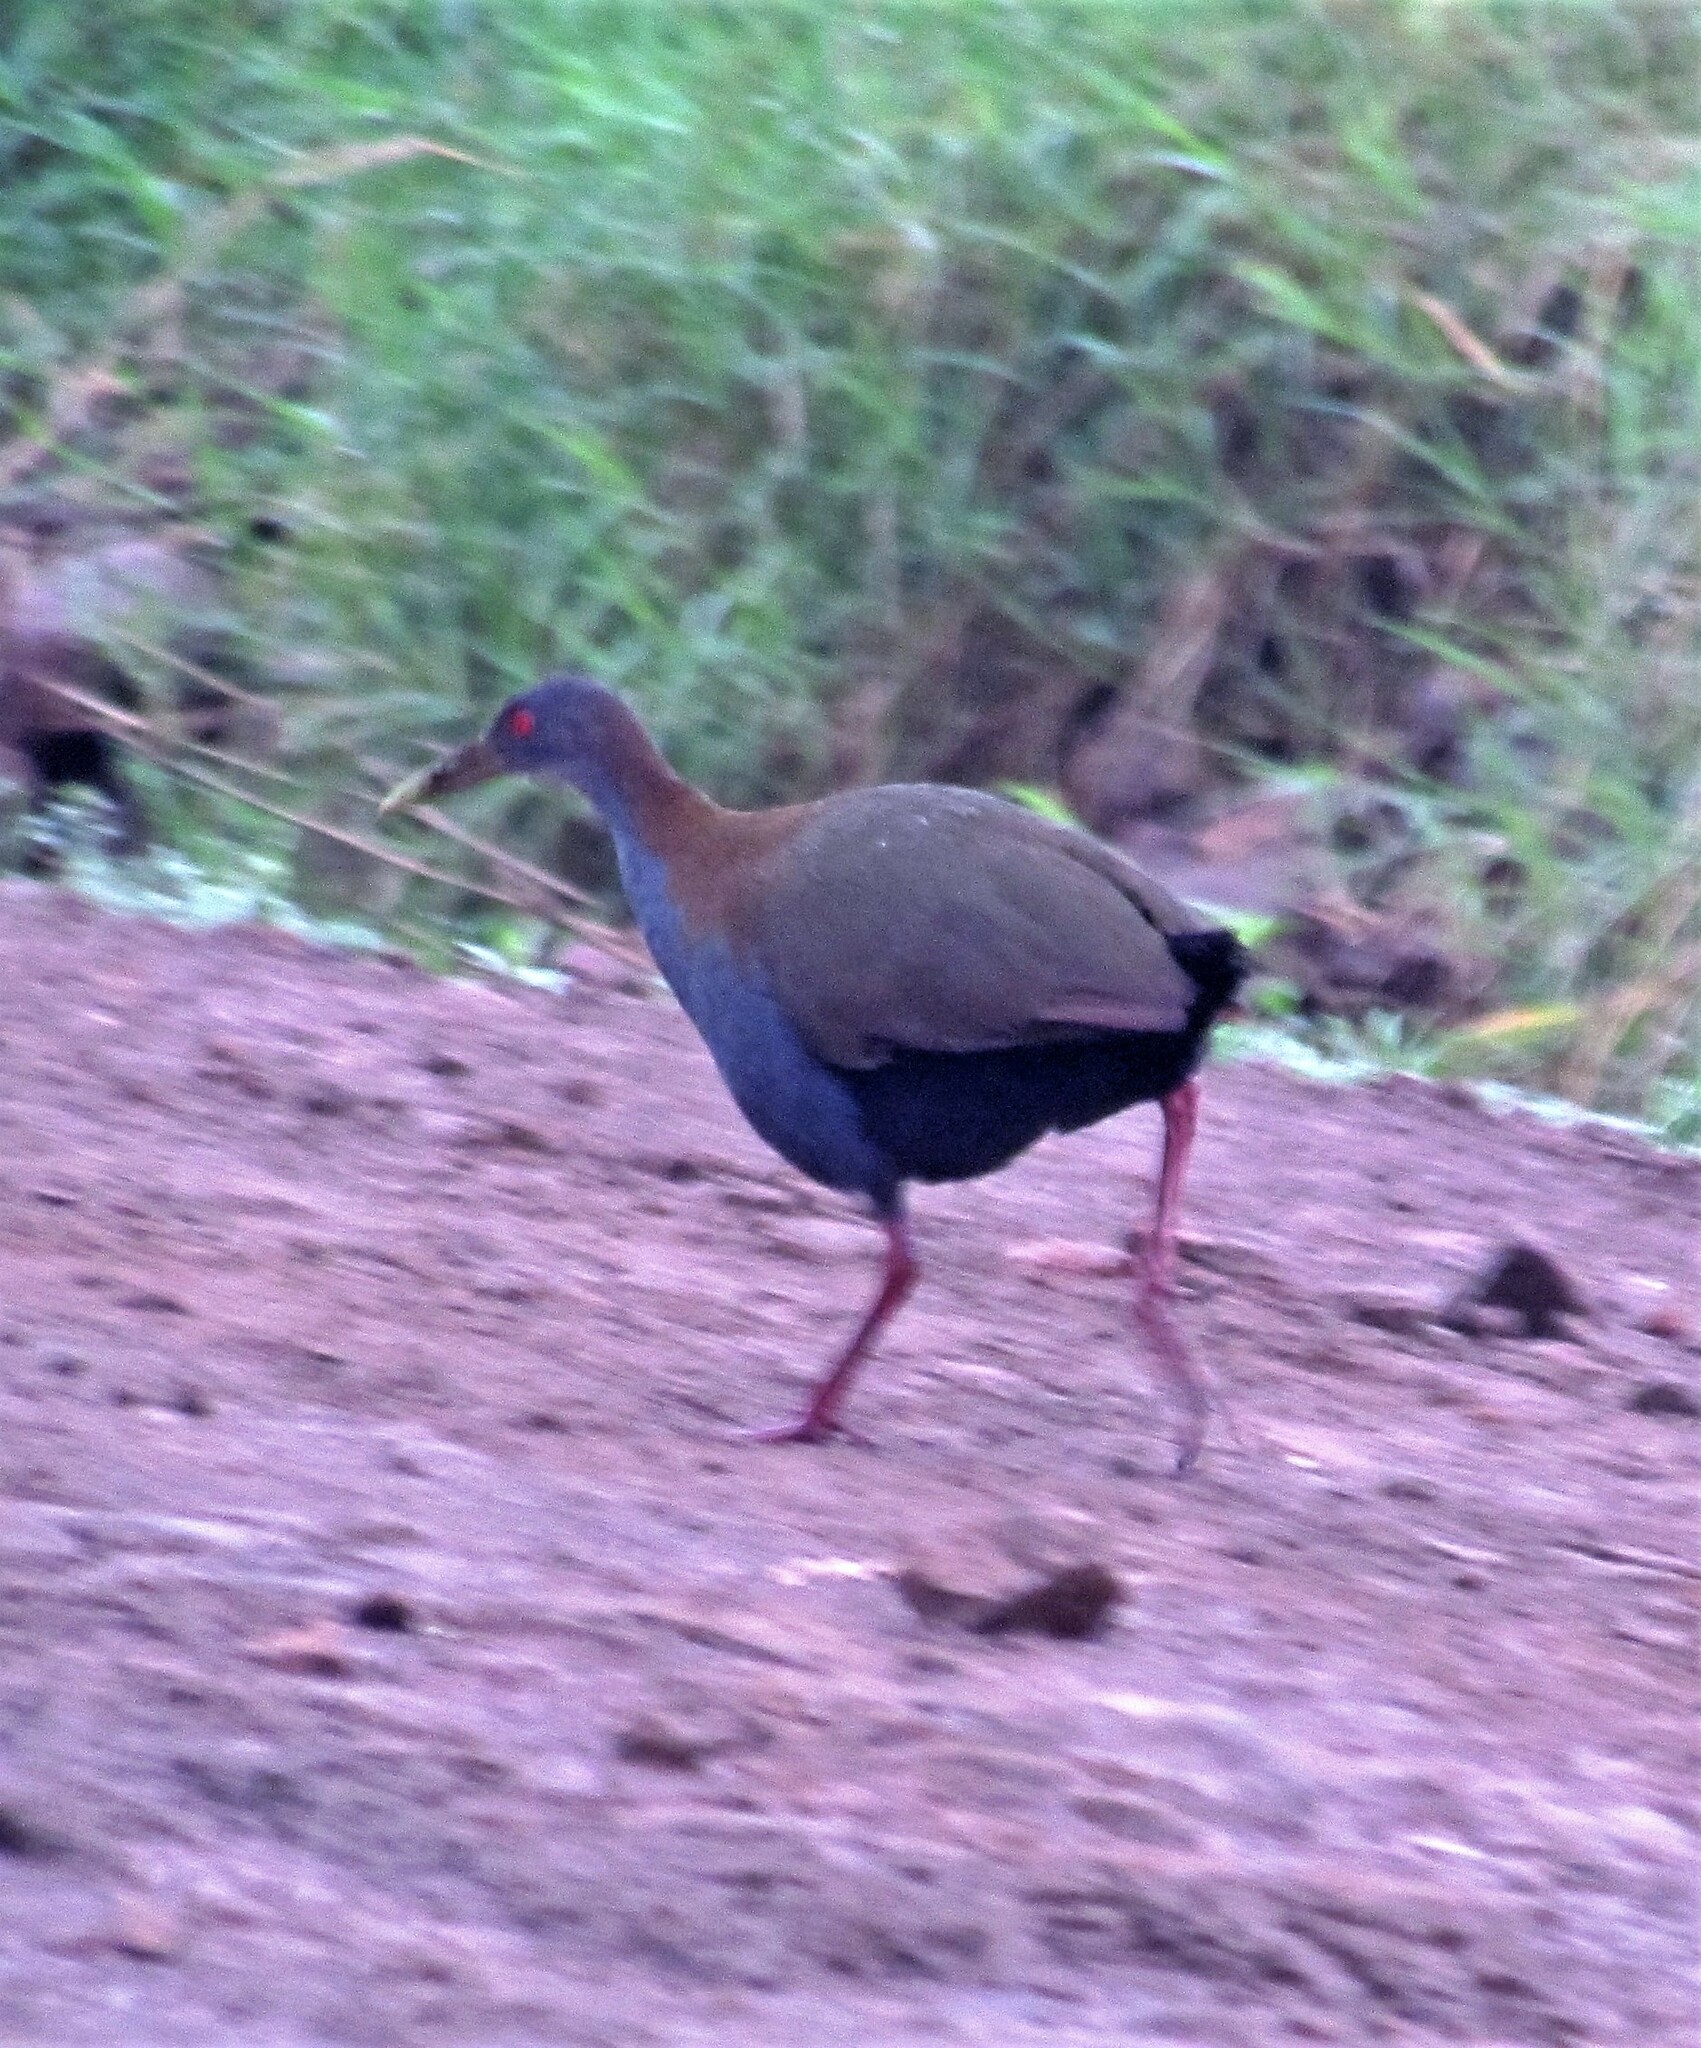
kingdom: Animalia
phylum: Chordata
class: Aves
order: Gruiformes
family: Rallidae
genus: Aramides
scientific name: Aramides saracura
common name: Slaty-breasted wood rail
